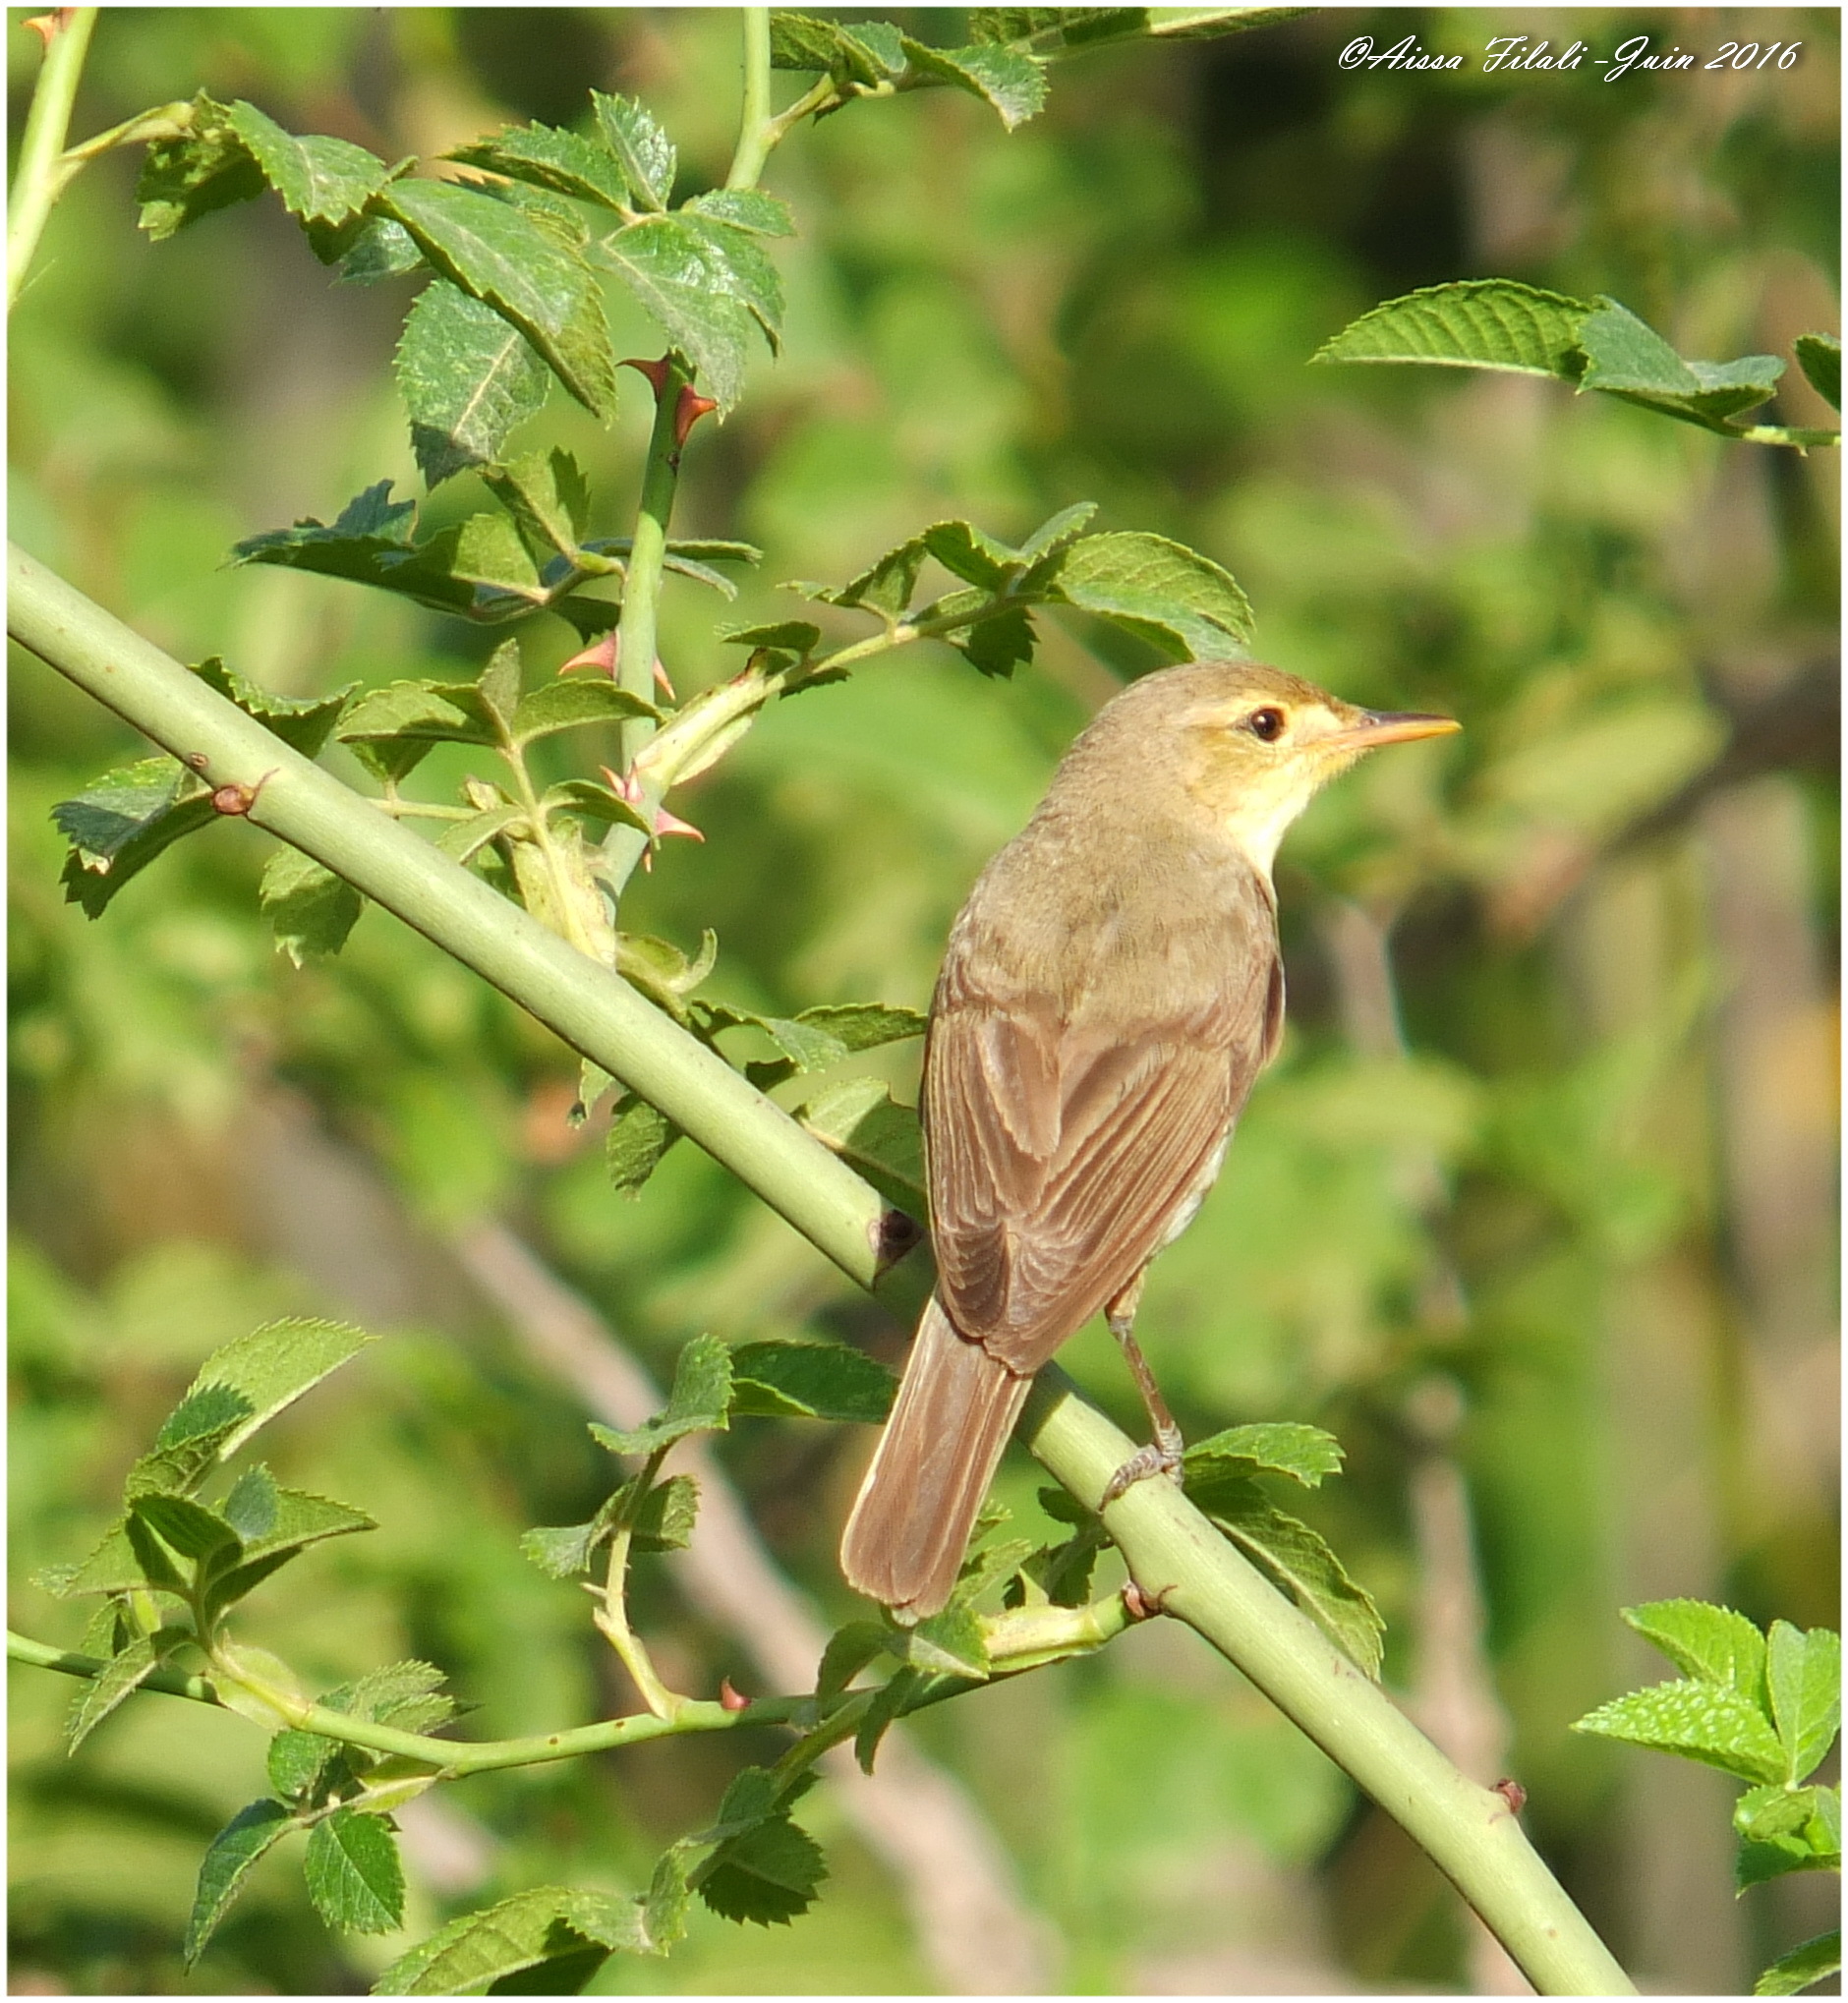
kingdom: Animalia
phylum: Chordata
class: Aves
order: Passeriformes
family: Acrocephalidae
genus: Hippolais
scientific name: Hippolais polyglotta
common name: Melodious warbler
